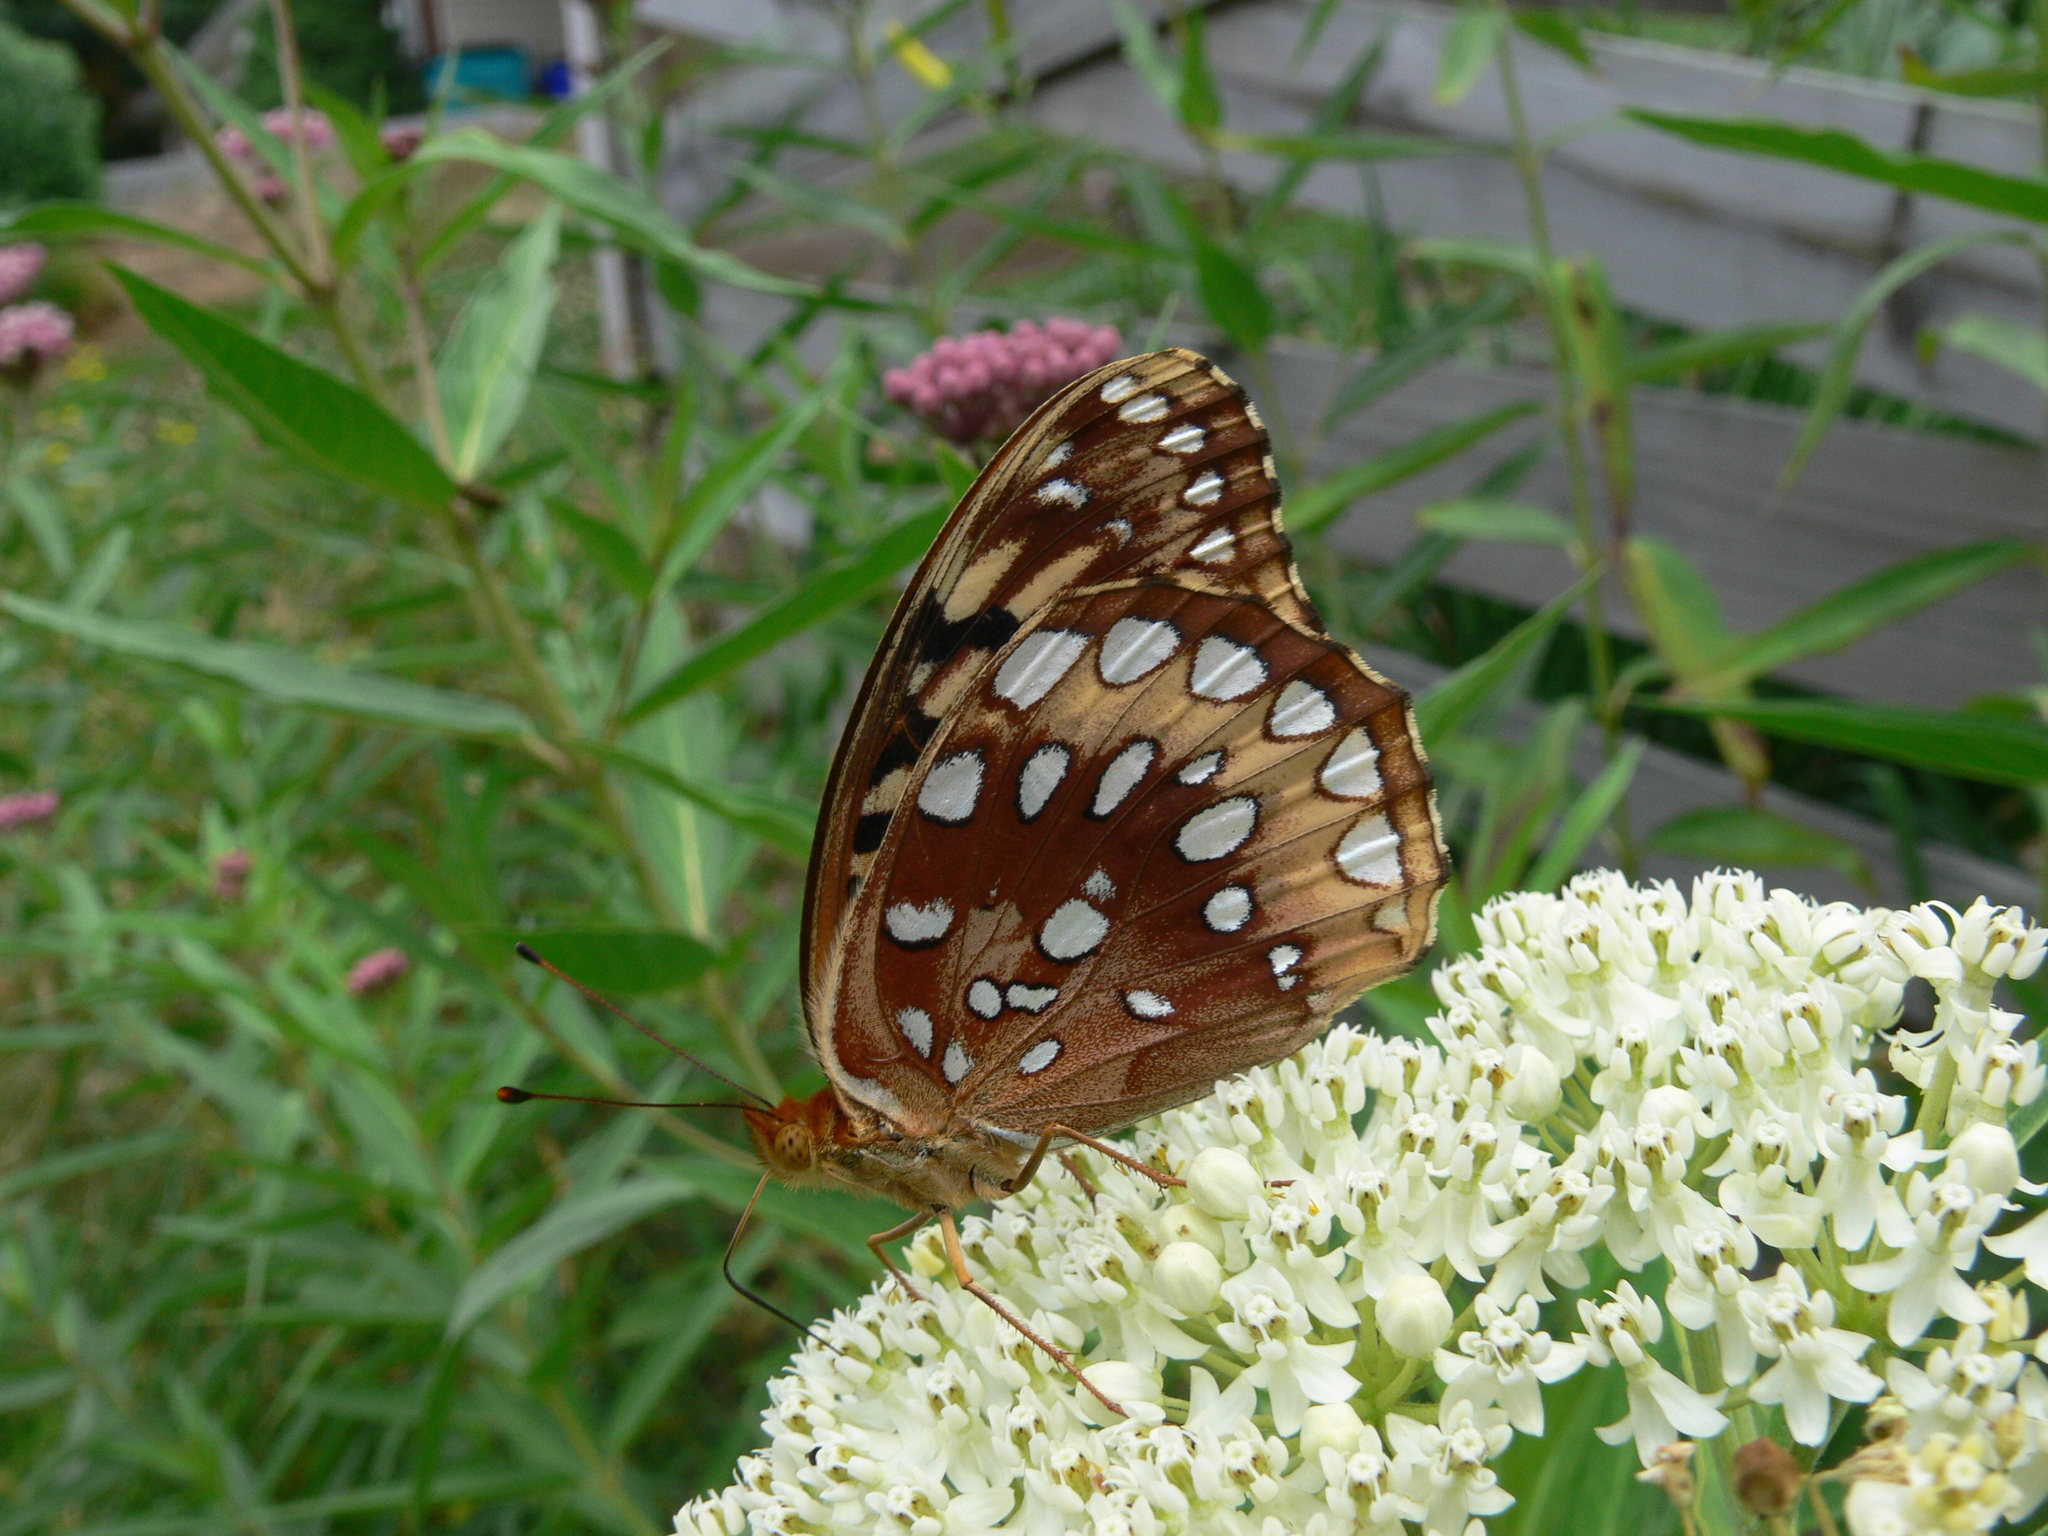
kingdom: Animalia
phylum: Arthropoda
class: Insecta
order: Lepidoptera
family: Nymphalidae
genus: Speyeria
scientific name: Speyeria cybele
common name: Great spangled fritillary
